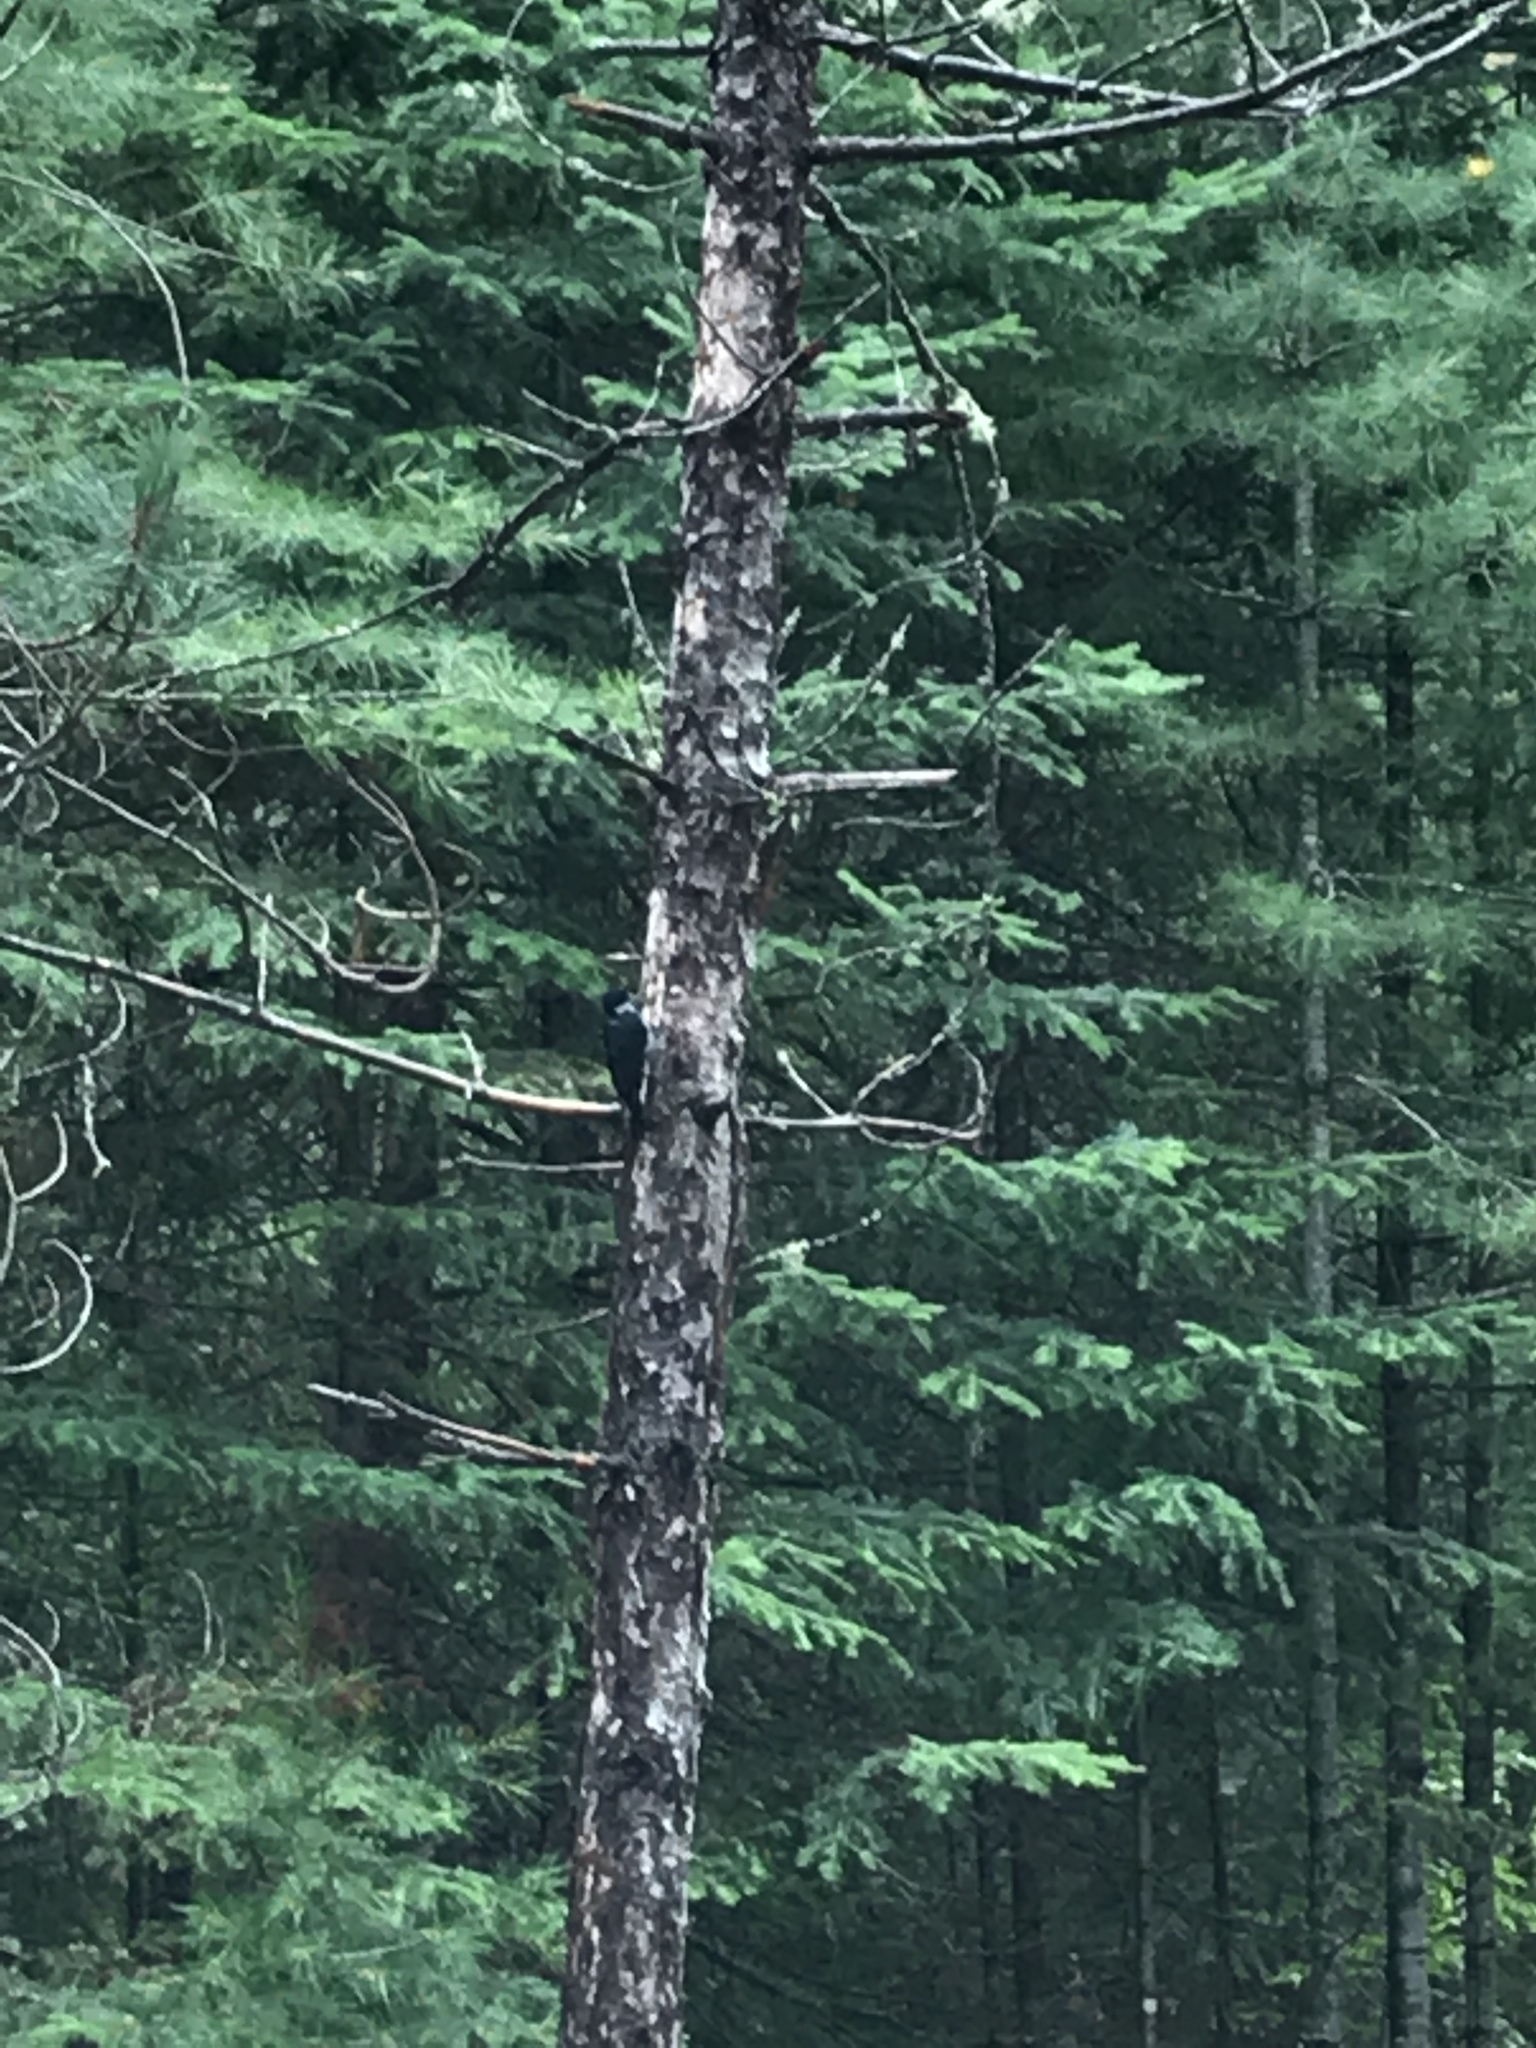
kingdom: Animalia
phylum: Chordata
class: Aves
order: Piciformes
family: Picidae
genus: Picoides
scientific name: Picoides arcticus
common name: Black-backed woodpecker
